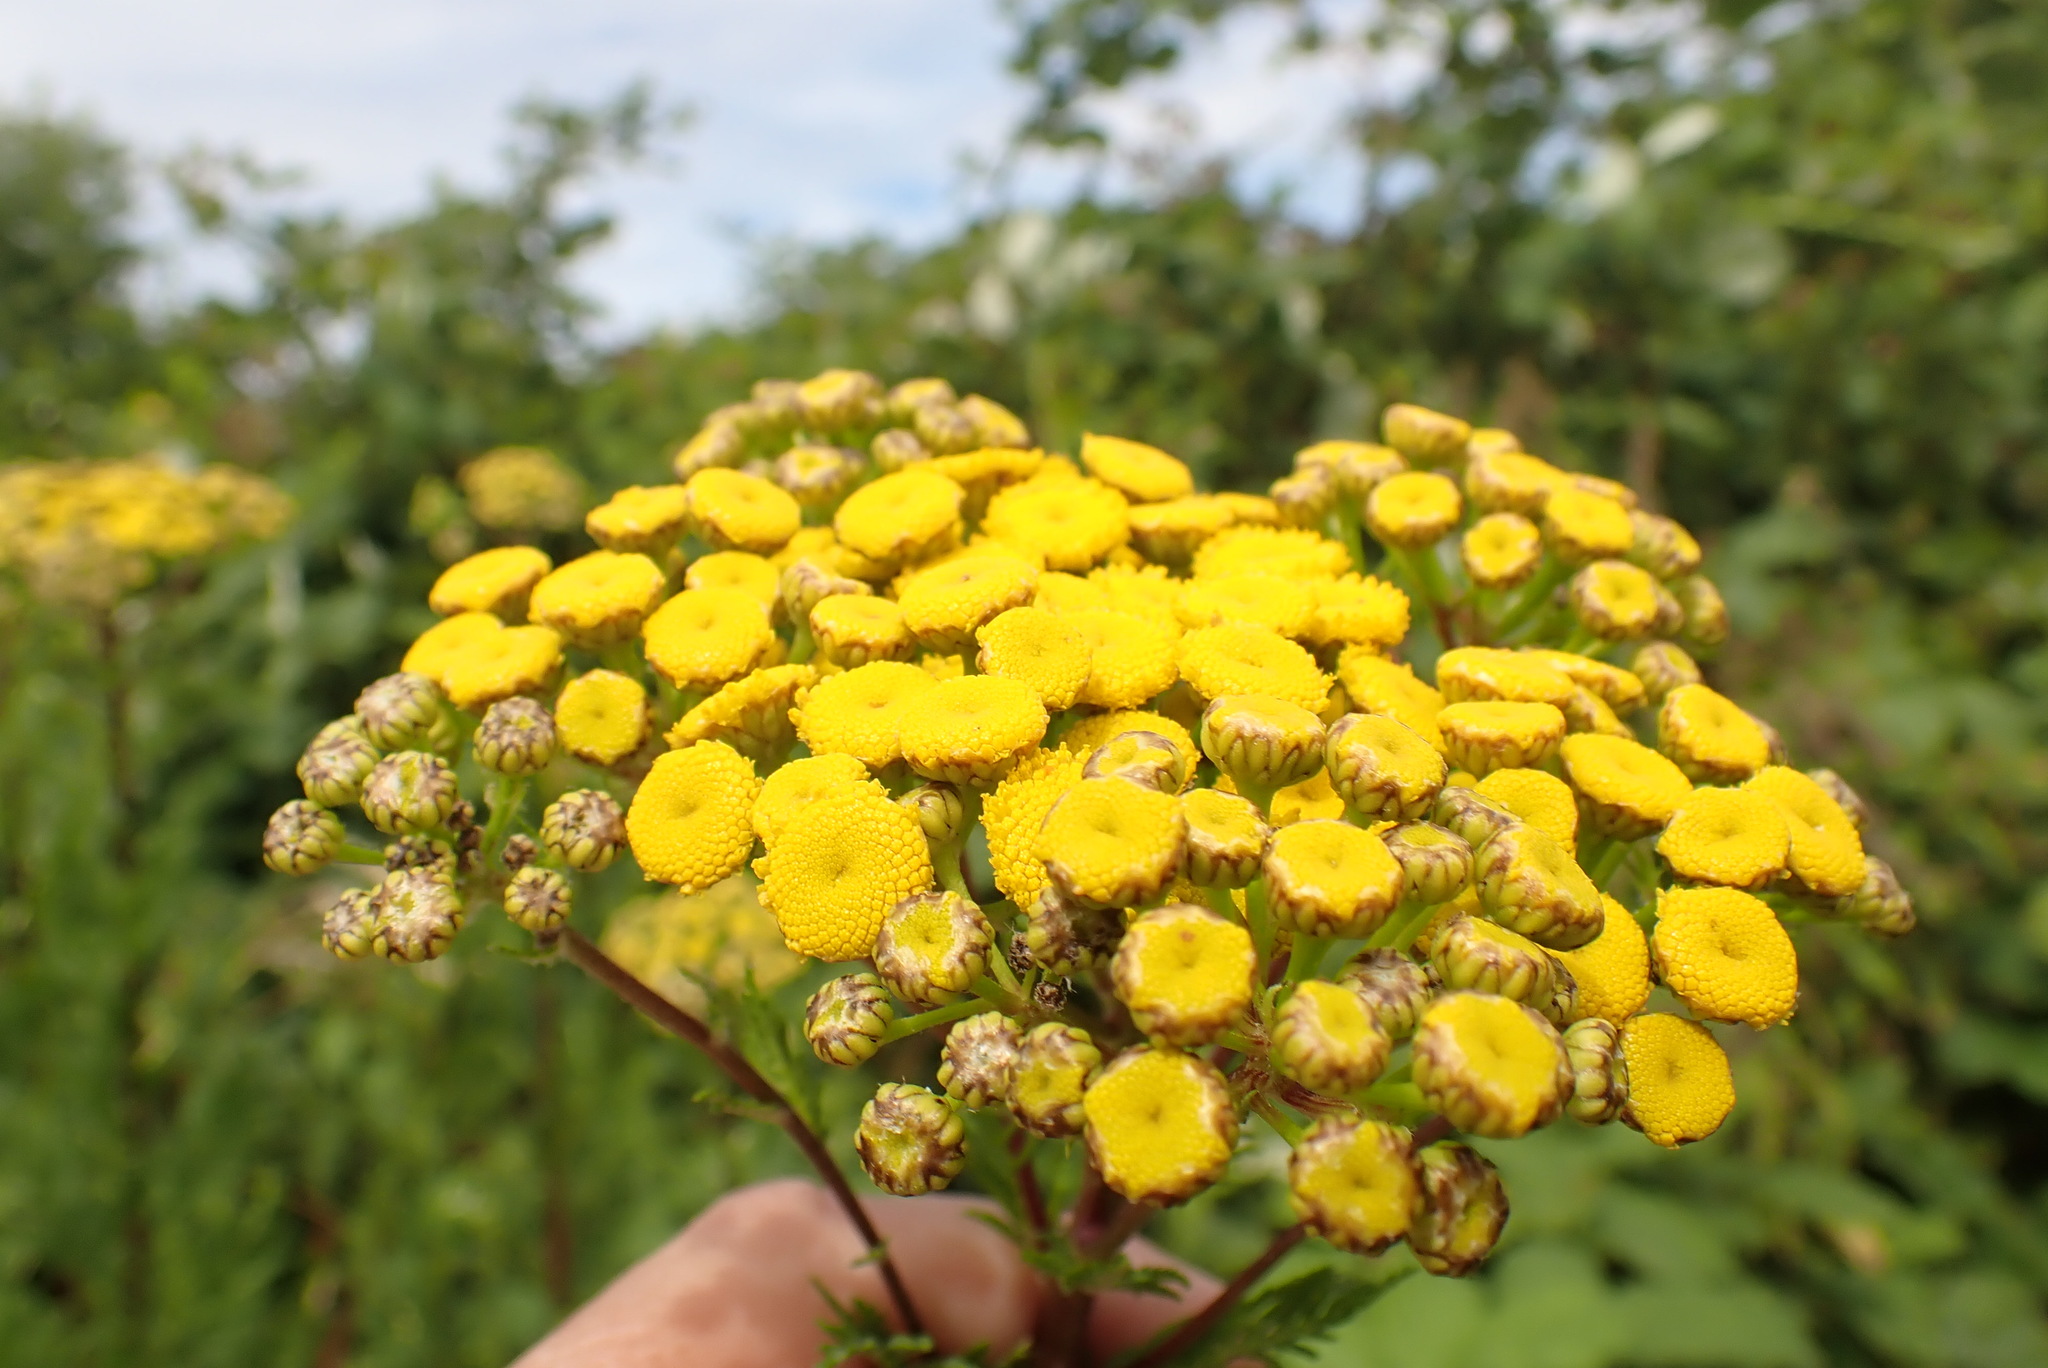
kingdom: Plantae
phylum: Tracheophyta
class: Magnoliopsida
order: Asterales
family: Asteraceae
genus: Tanacetum
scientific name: Tanacetum vulgare
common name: Common tansy
